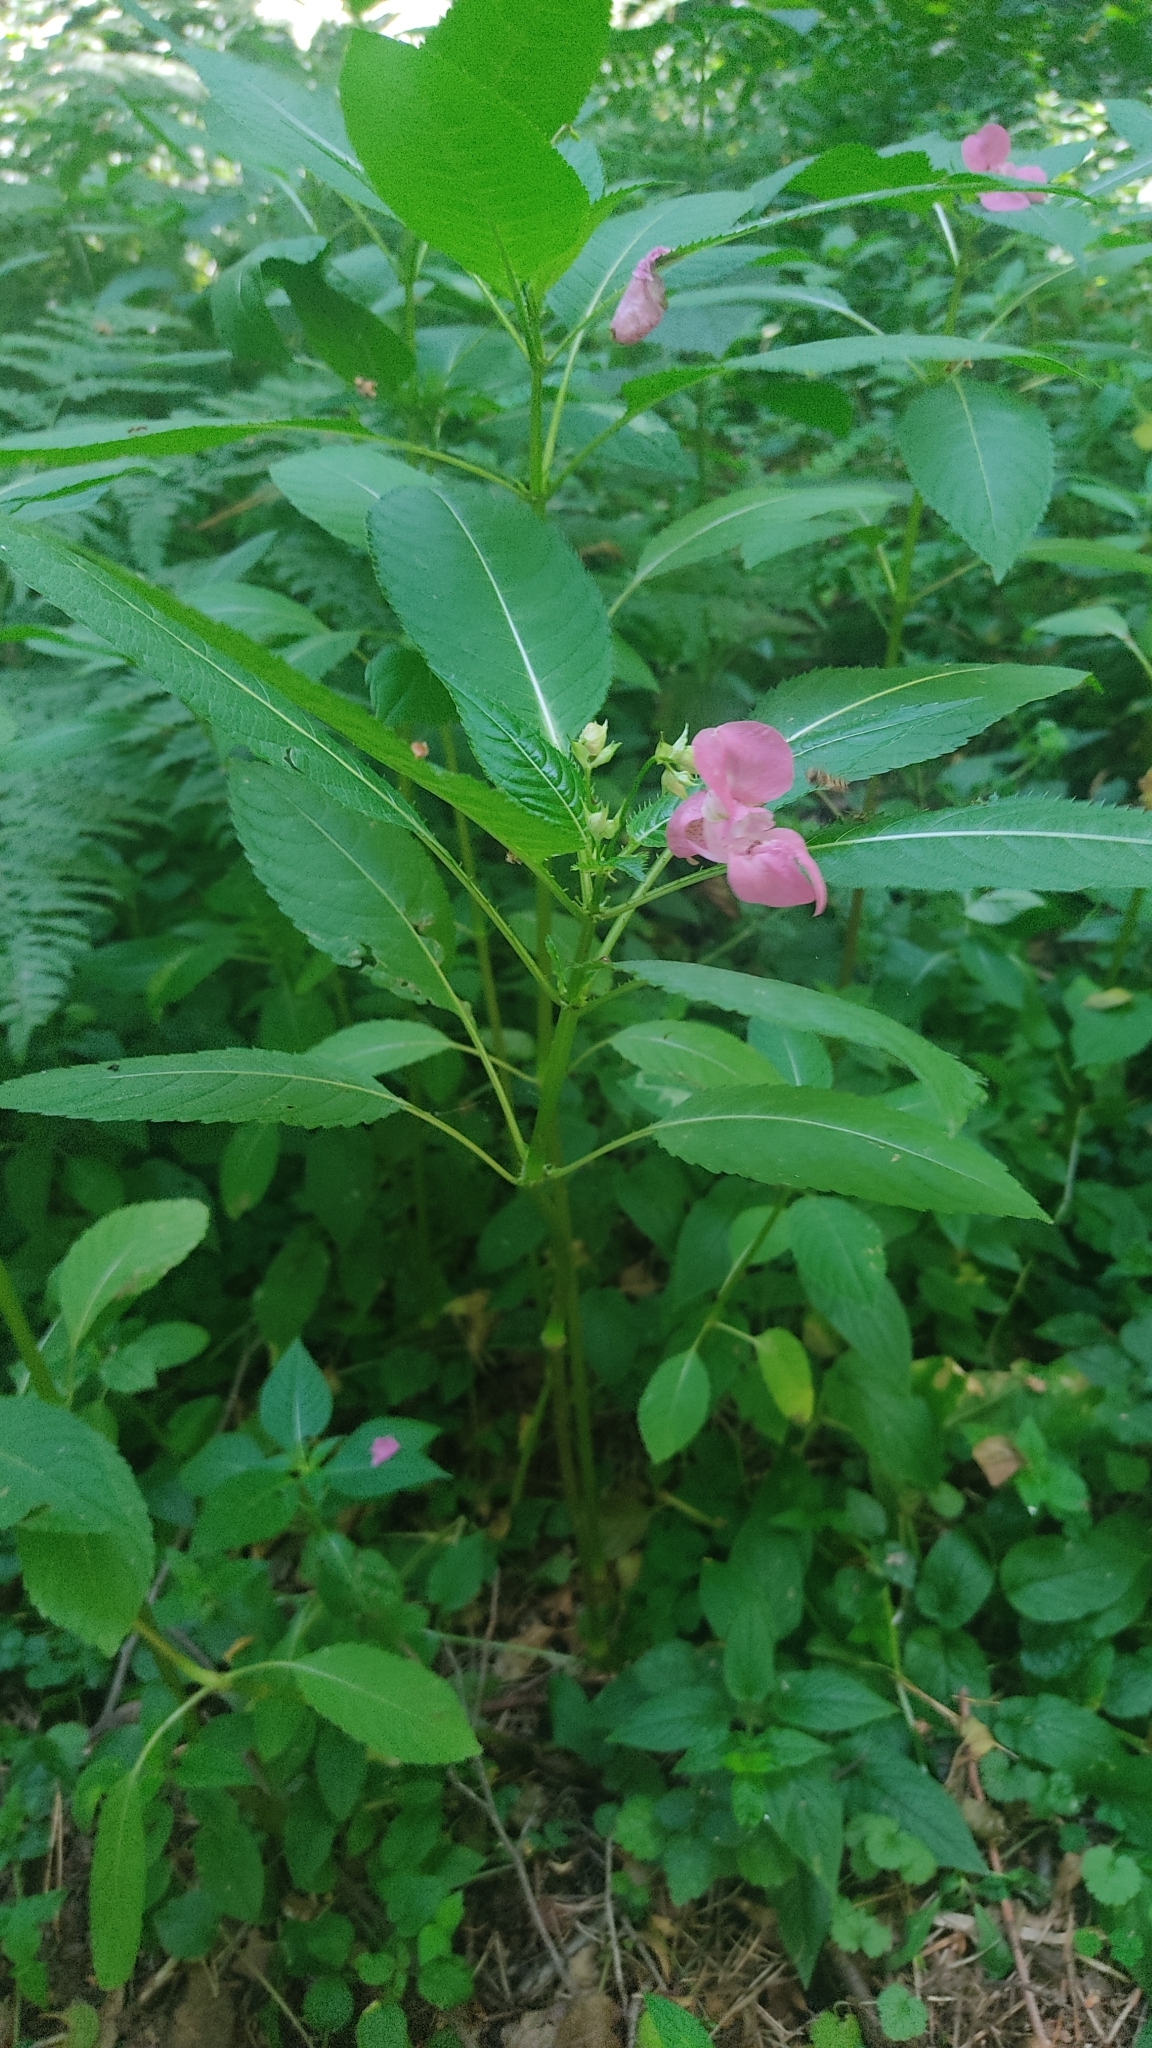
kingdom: Plantae
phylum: Tracheophyta
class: Magnoliopsida
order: Ericales
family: Balsaminaceae
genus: Impatiens
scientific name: Impatiens glandulifera
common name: Himalayan balsam
